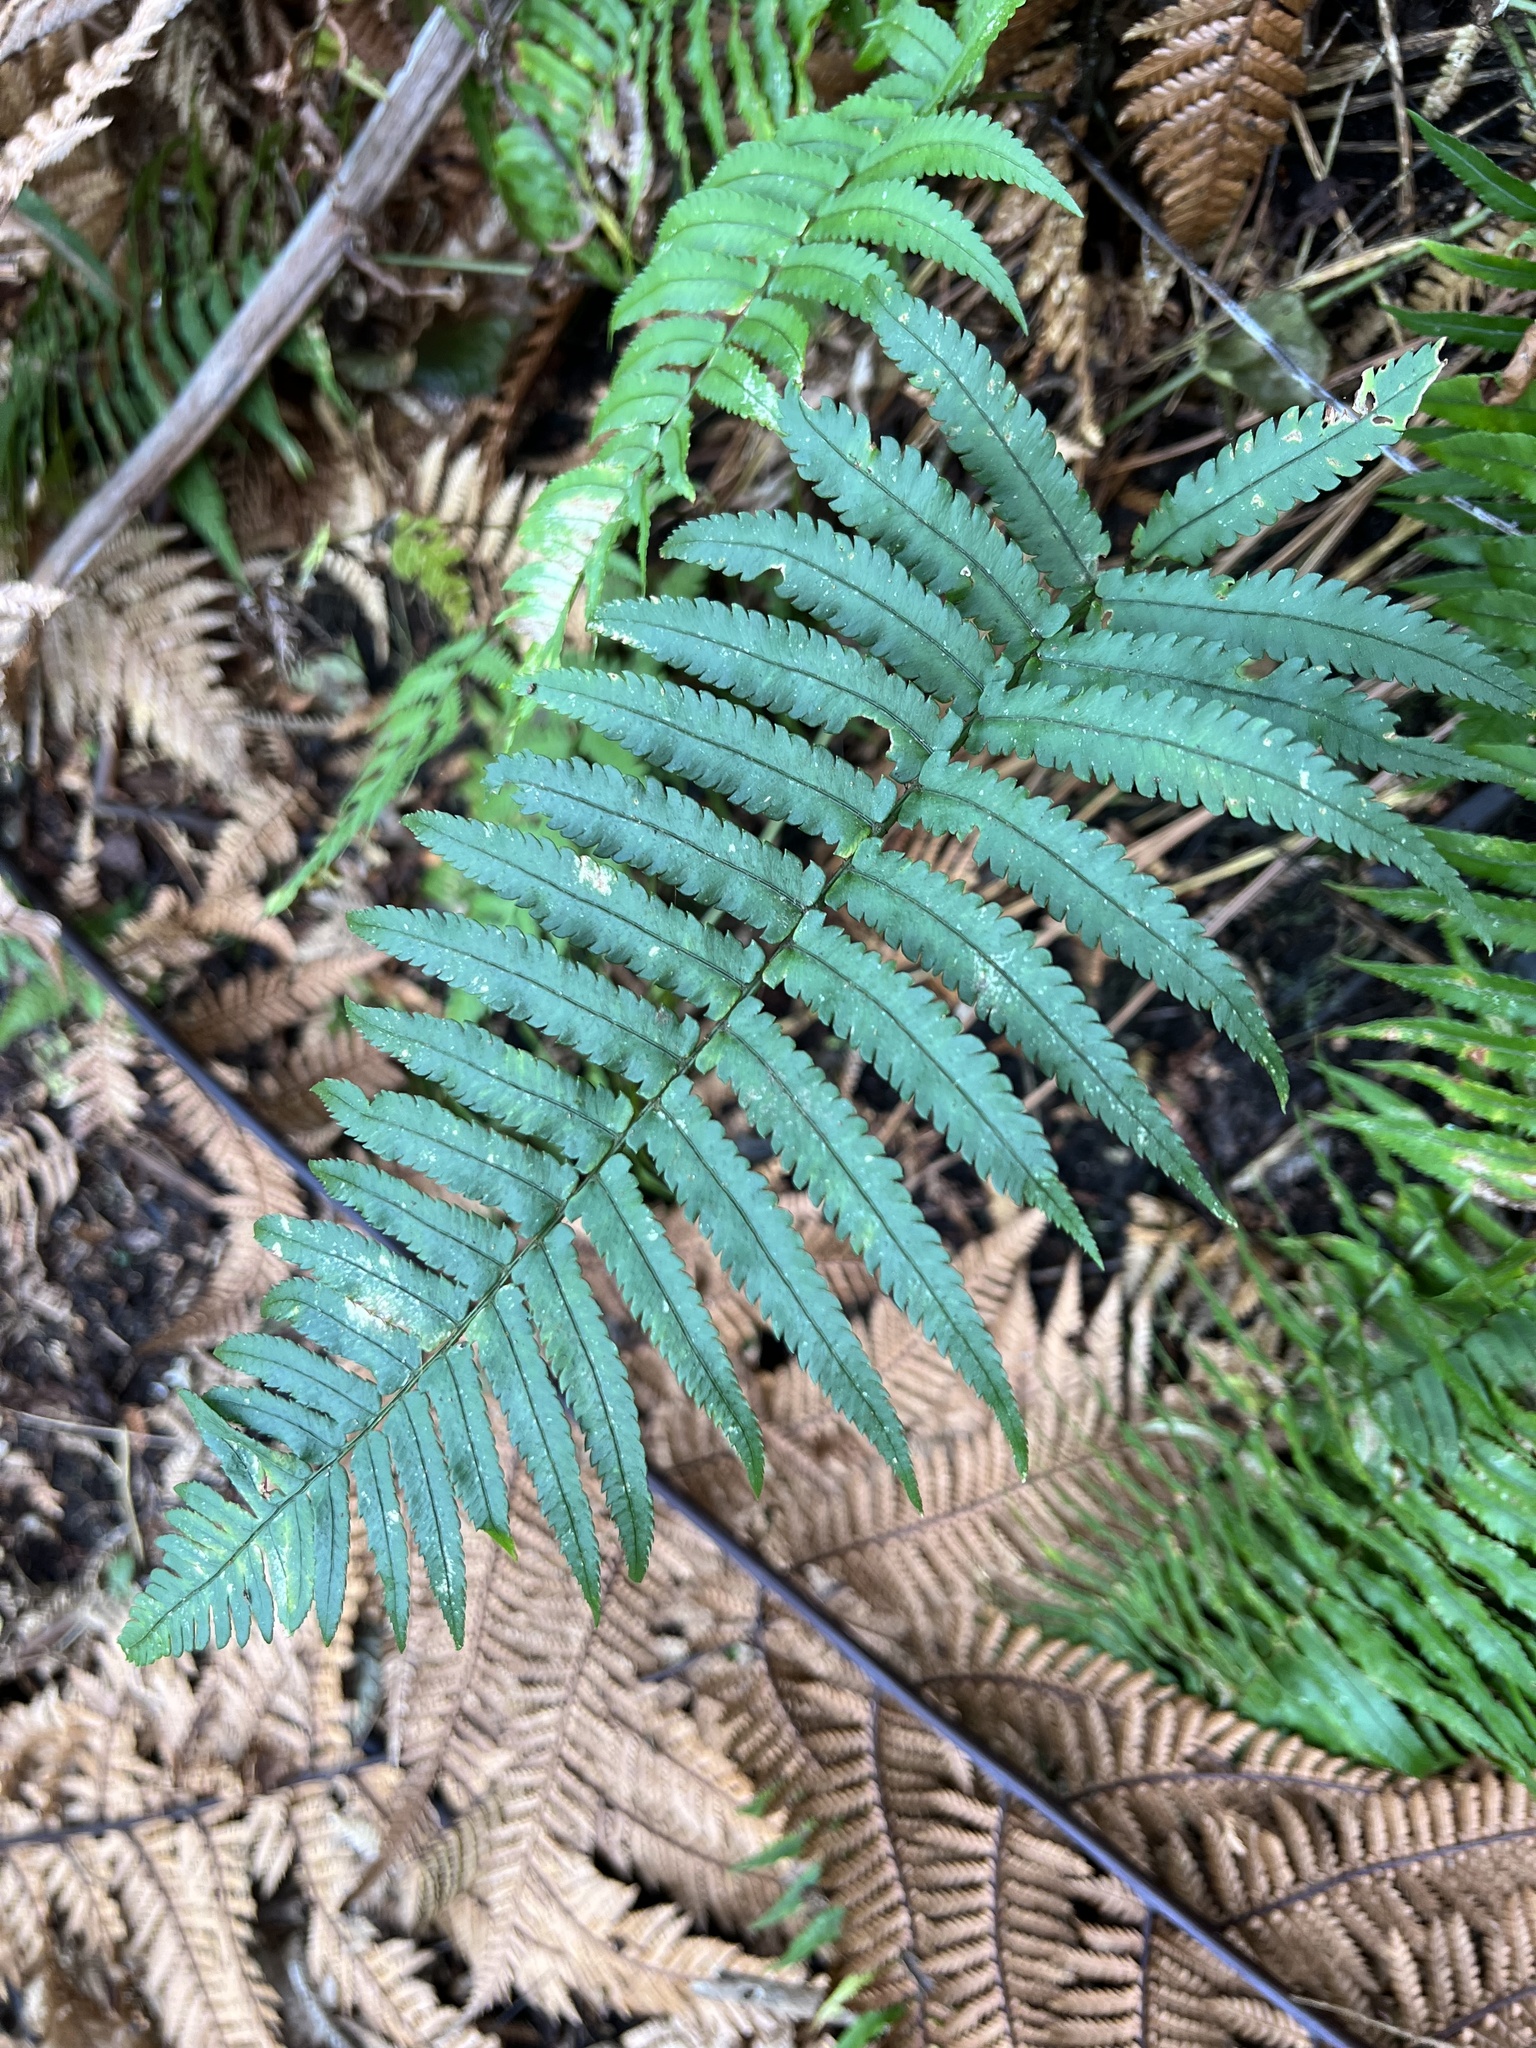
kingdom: Plantae
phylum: Tracheophyta
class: Polypodiopsida
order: Polypodiales
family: Dryopteridaceae
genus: Dryopteris
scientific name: Dryopteris cycadina
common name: Shaggy wood fern
